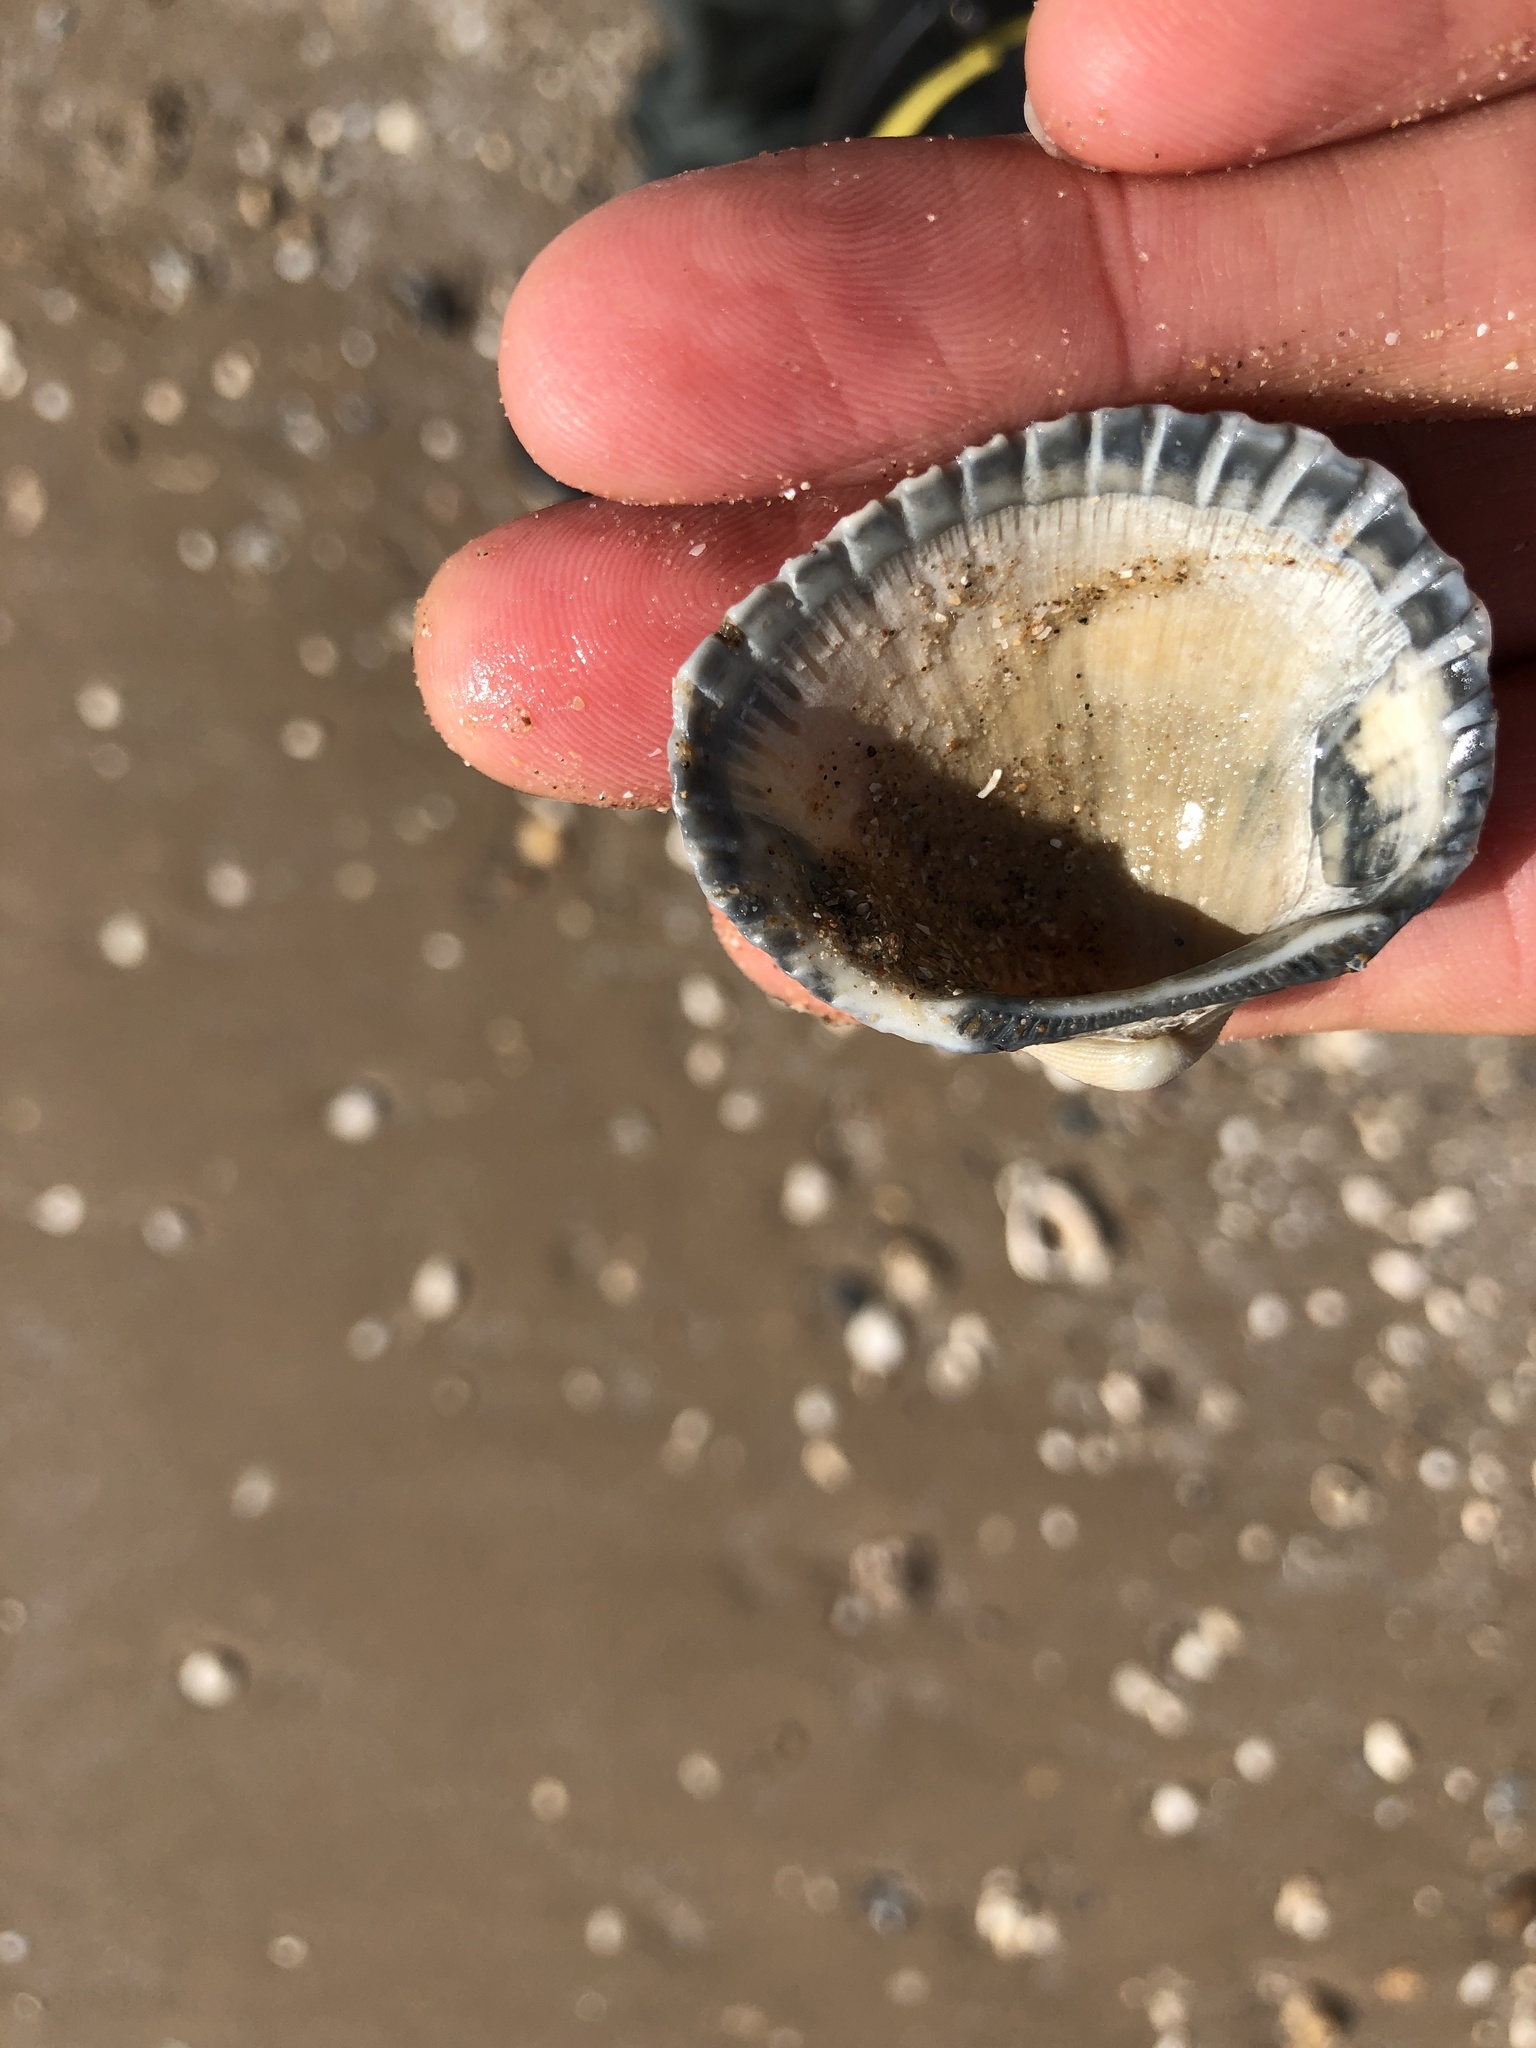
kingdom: Animalia
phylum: Mollusca
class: Bivalvia
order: Arcida
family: Arcidae
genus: Anadara
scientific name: Anadara brasiliana
